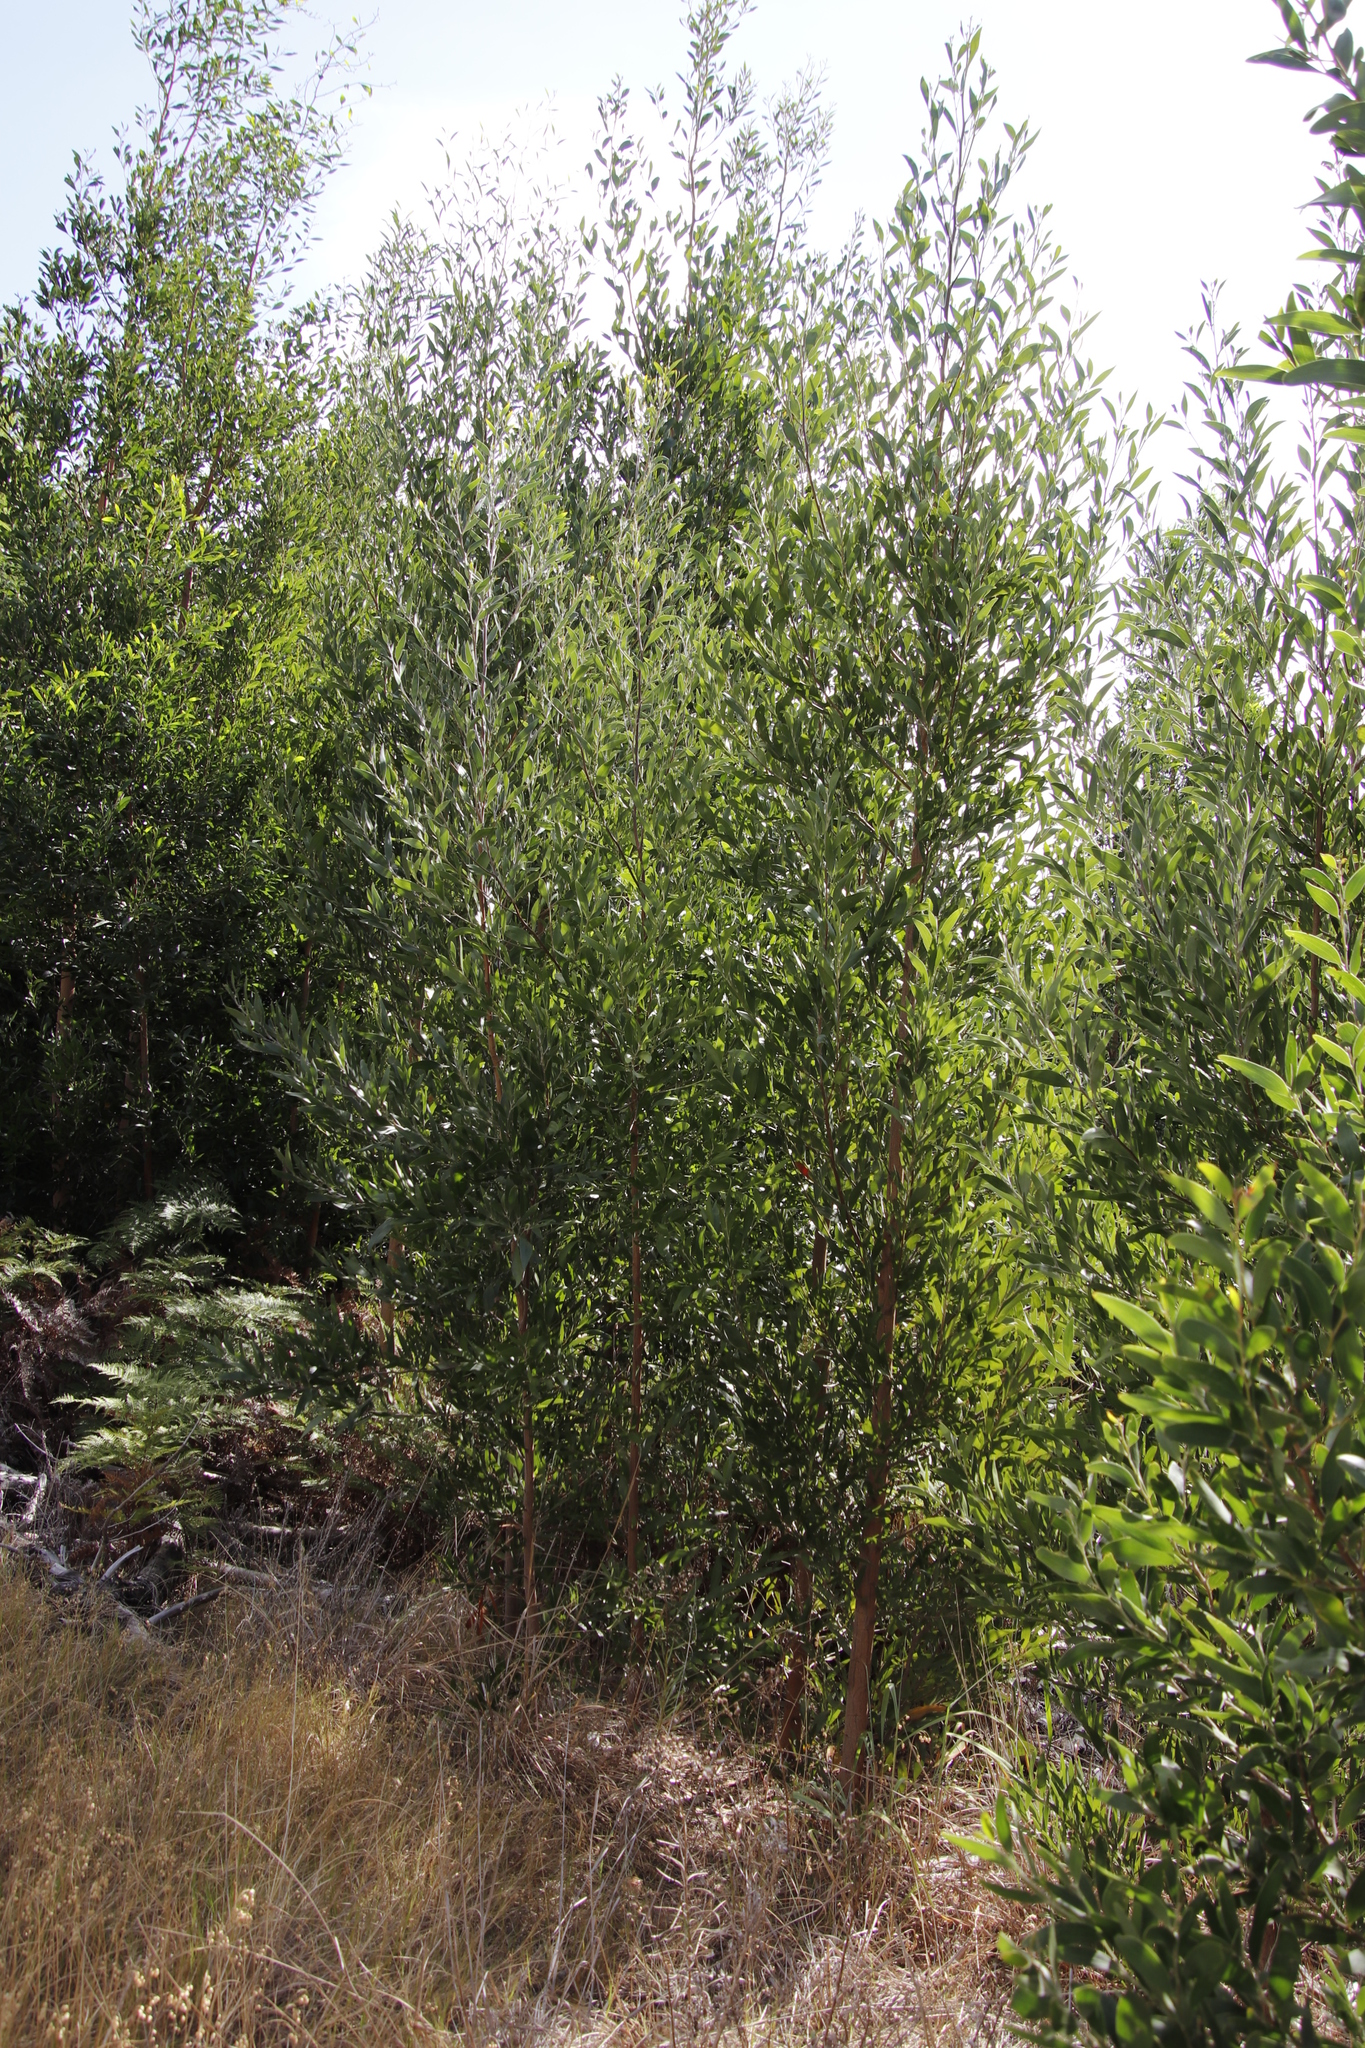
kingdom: Plantae
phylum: Tracheophyta
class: Magnoliopsida
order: Fabales
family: Fabaceae
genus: Acacia
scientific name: Acacia melanoxylon
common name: Blackwood
